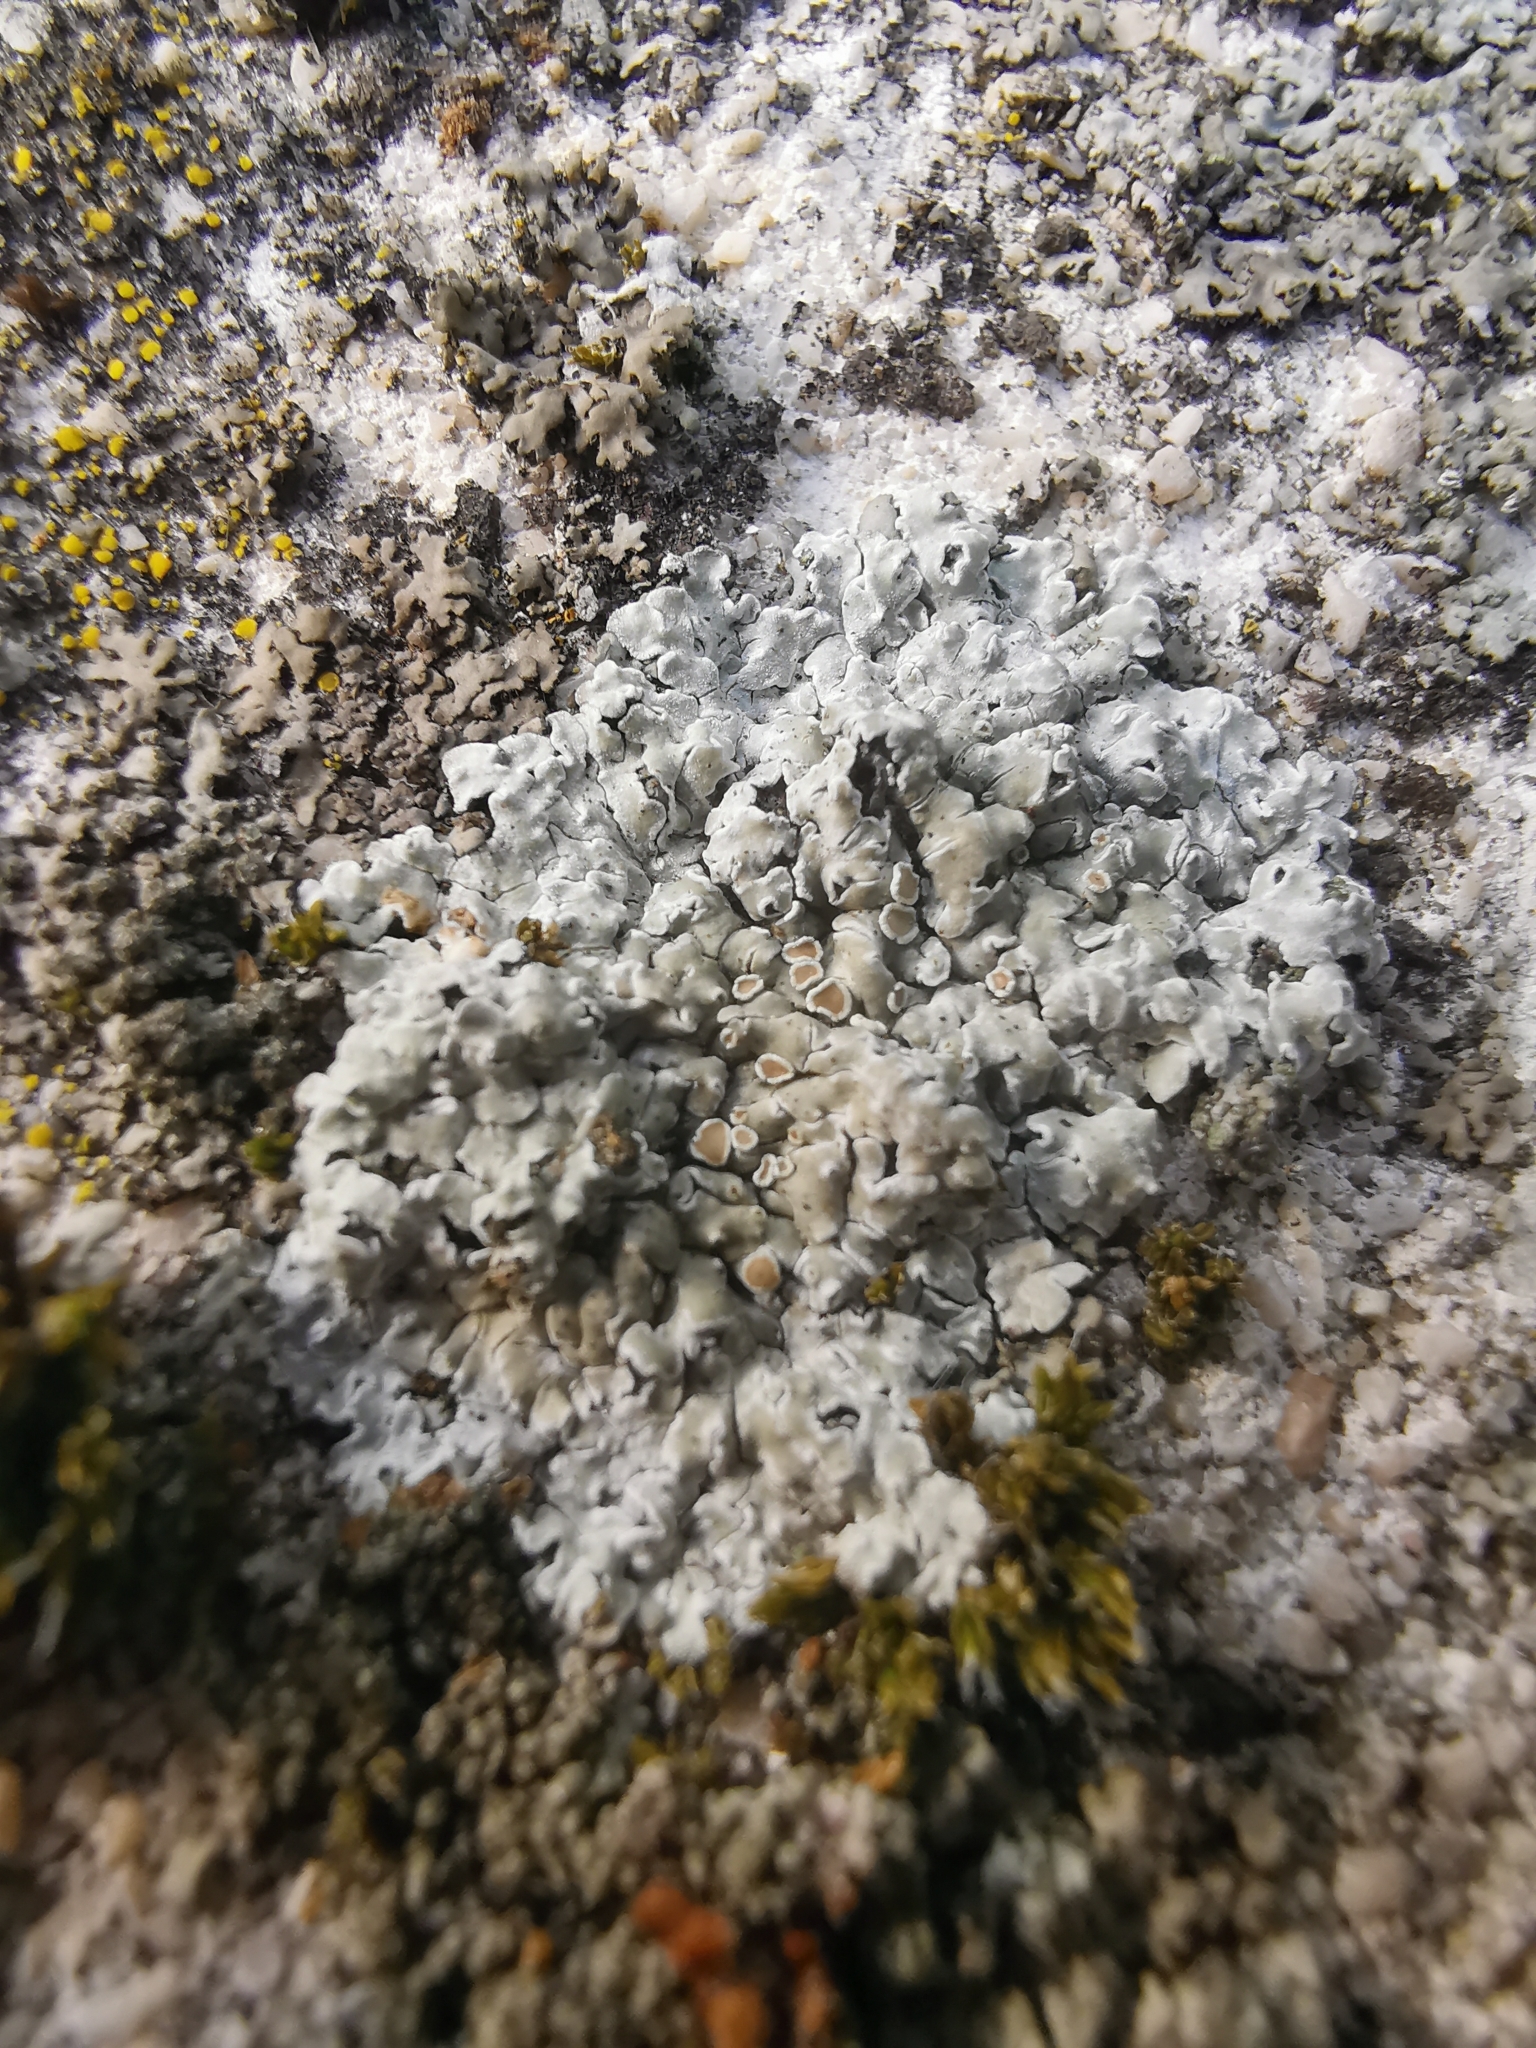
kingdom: Fungi
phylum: Ascomycota
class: Lecanoromycetes
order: Lecanorales
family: Lecanoraceae
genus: Protoparmeliopsis
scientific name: Protoparmeliopsis muralis
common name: Stonewall rim lichen
